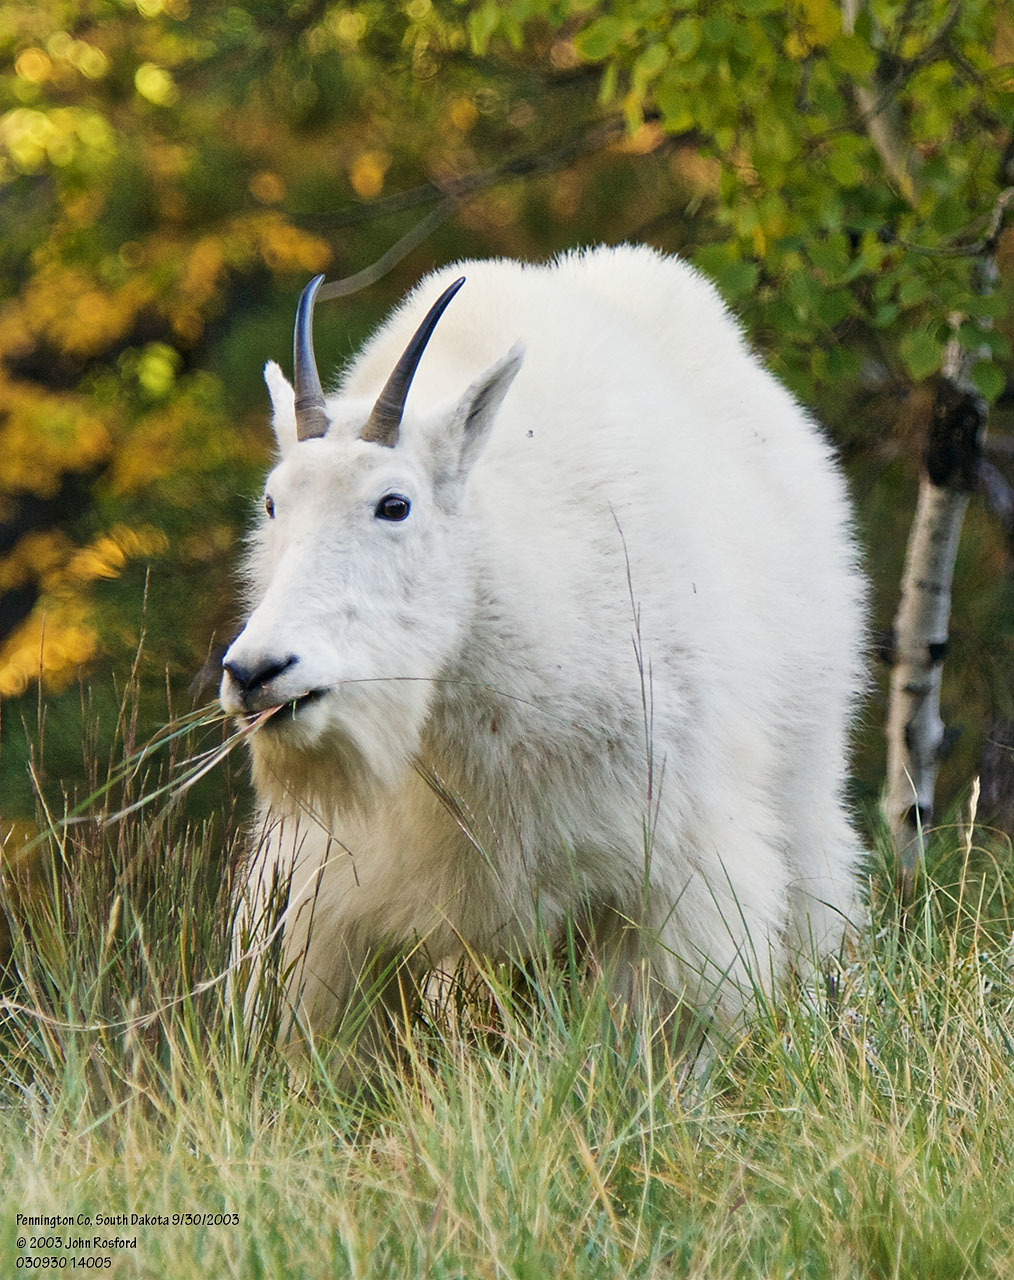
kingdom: Animalia
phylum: Chordata
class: Mammalia
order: Artiodactyla
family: Bovidae
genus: Oreamnos
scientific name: Oreamnos americanus
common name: Mountain goat
